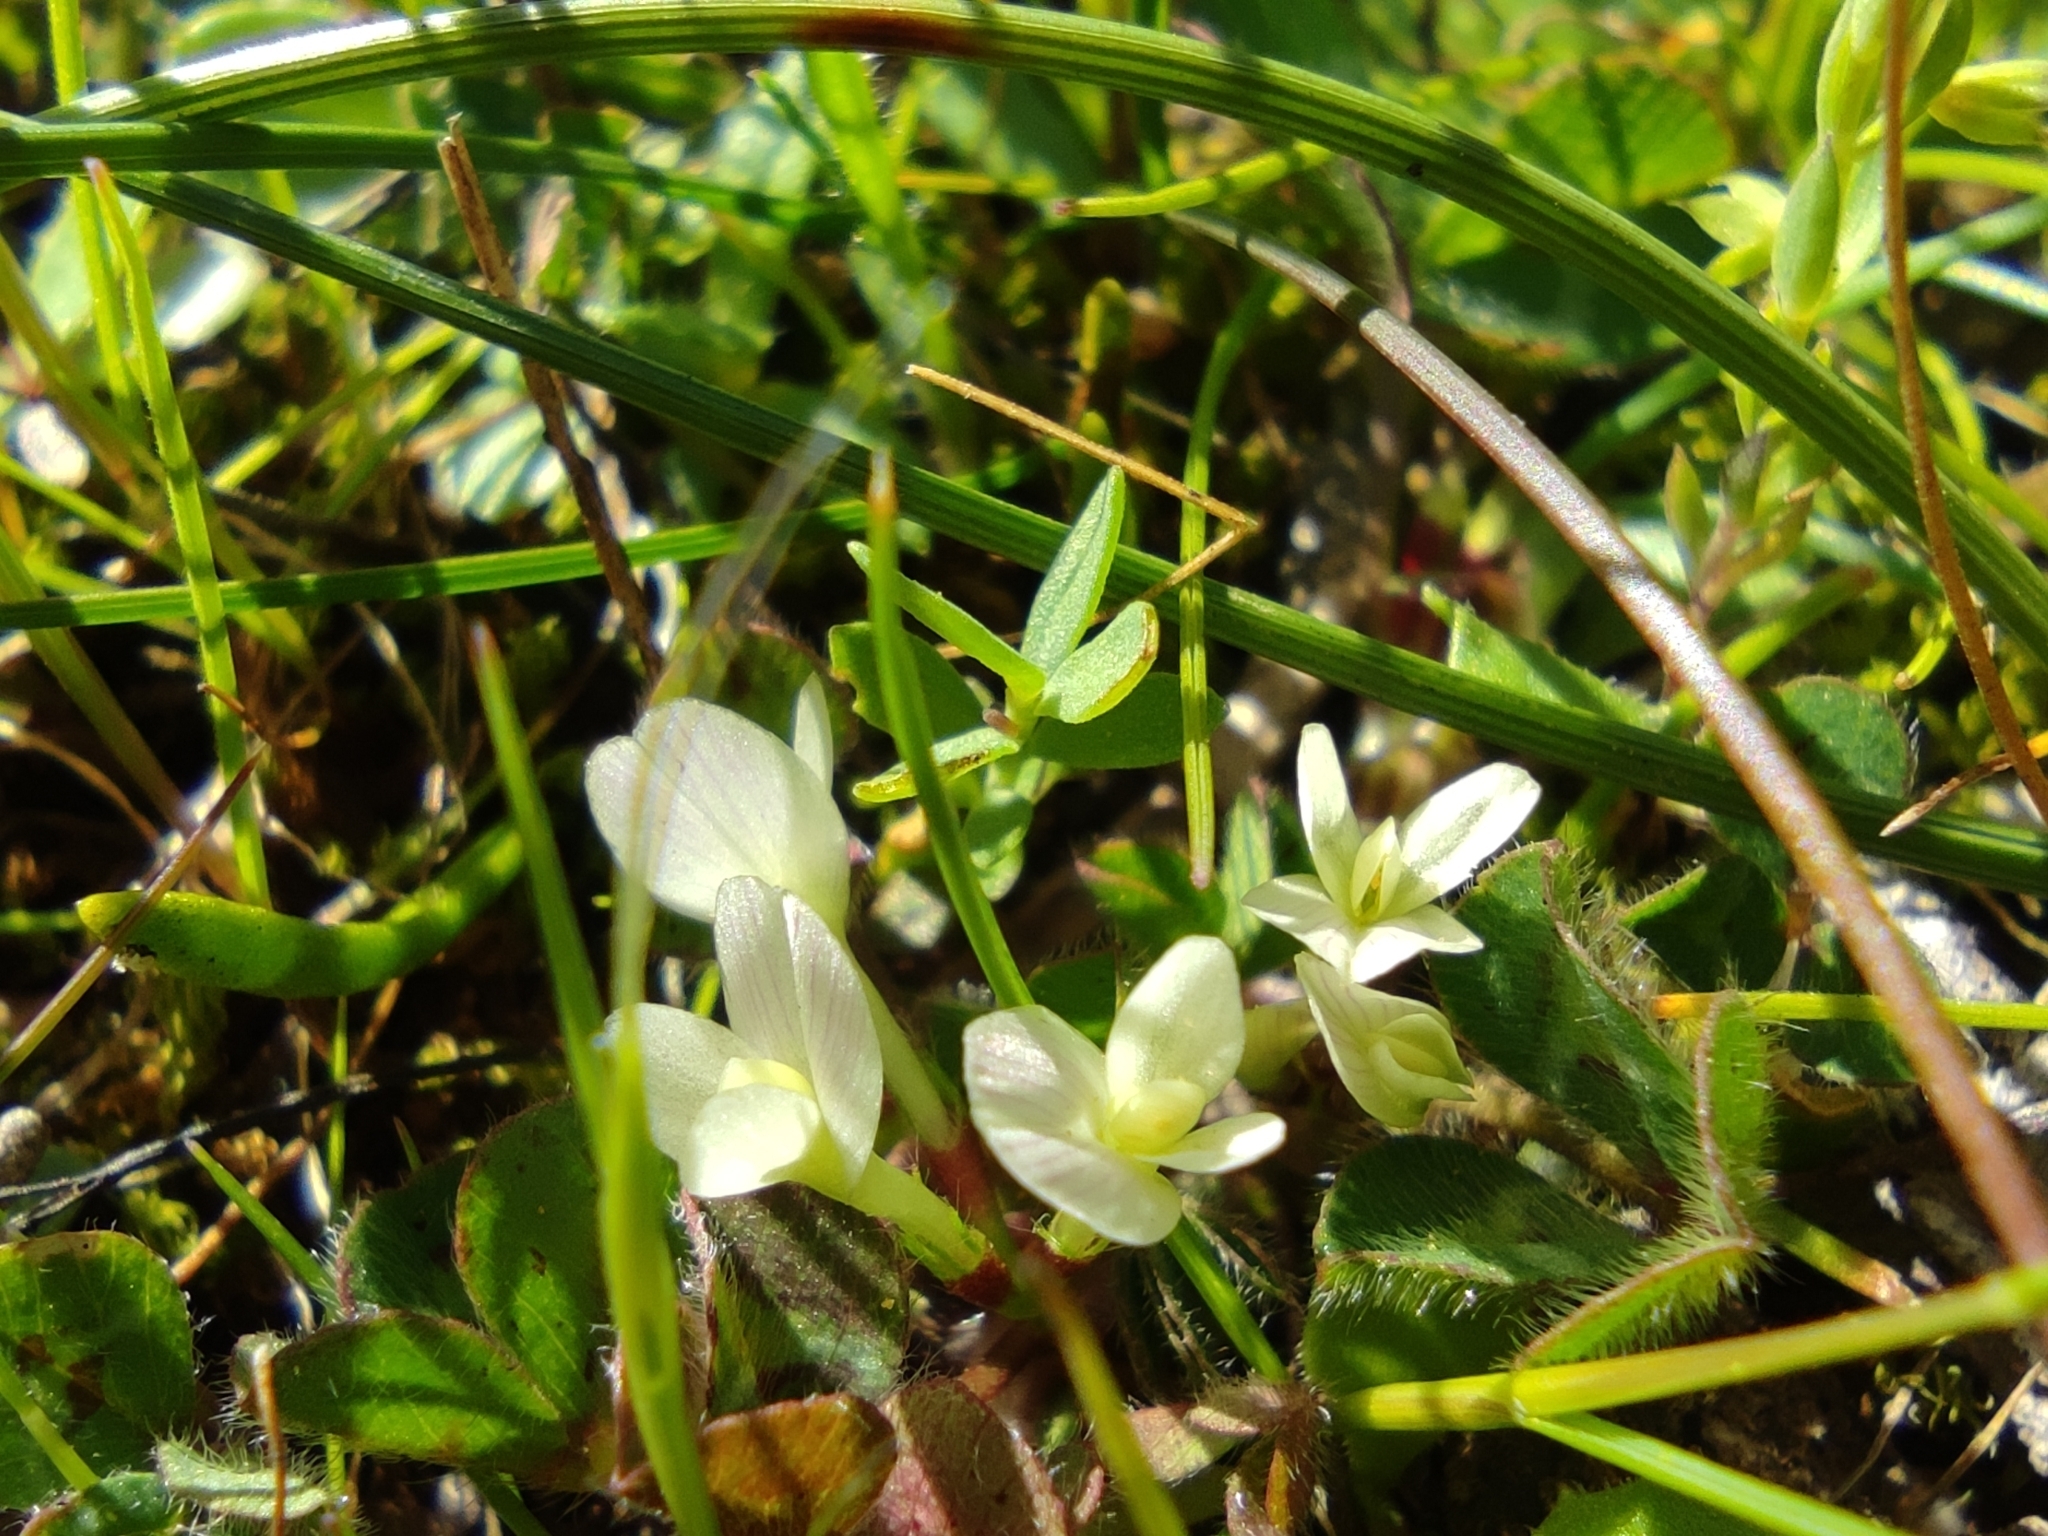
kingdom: Plantae
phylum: Tracheophyta
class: Magnoliopsida
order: Fabales
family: Fabaceae
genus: Trifolium
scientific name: Trifolium subterraneum
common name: Subterranean clover
